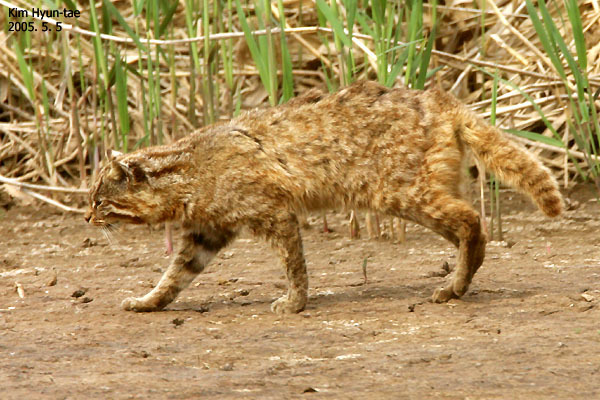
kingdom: Animalia
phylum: Chordata
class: Mammalia
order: Carnivora
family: Felidae
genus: Prionailurus
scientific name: Prionailurus bengalensis
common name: Leopard cat
